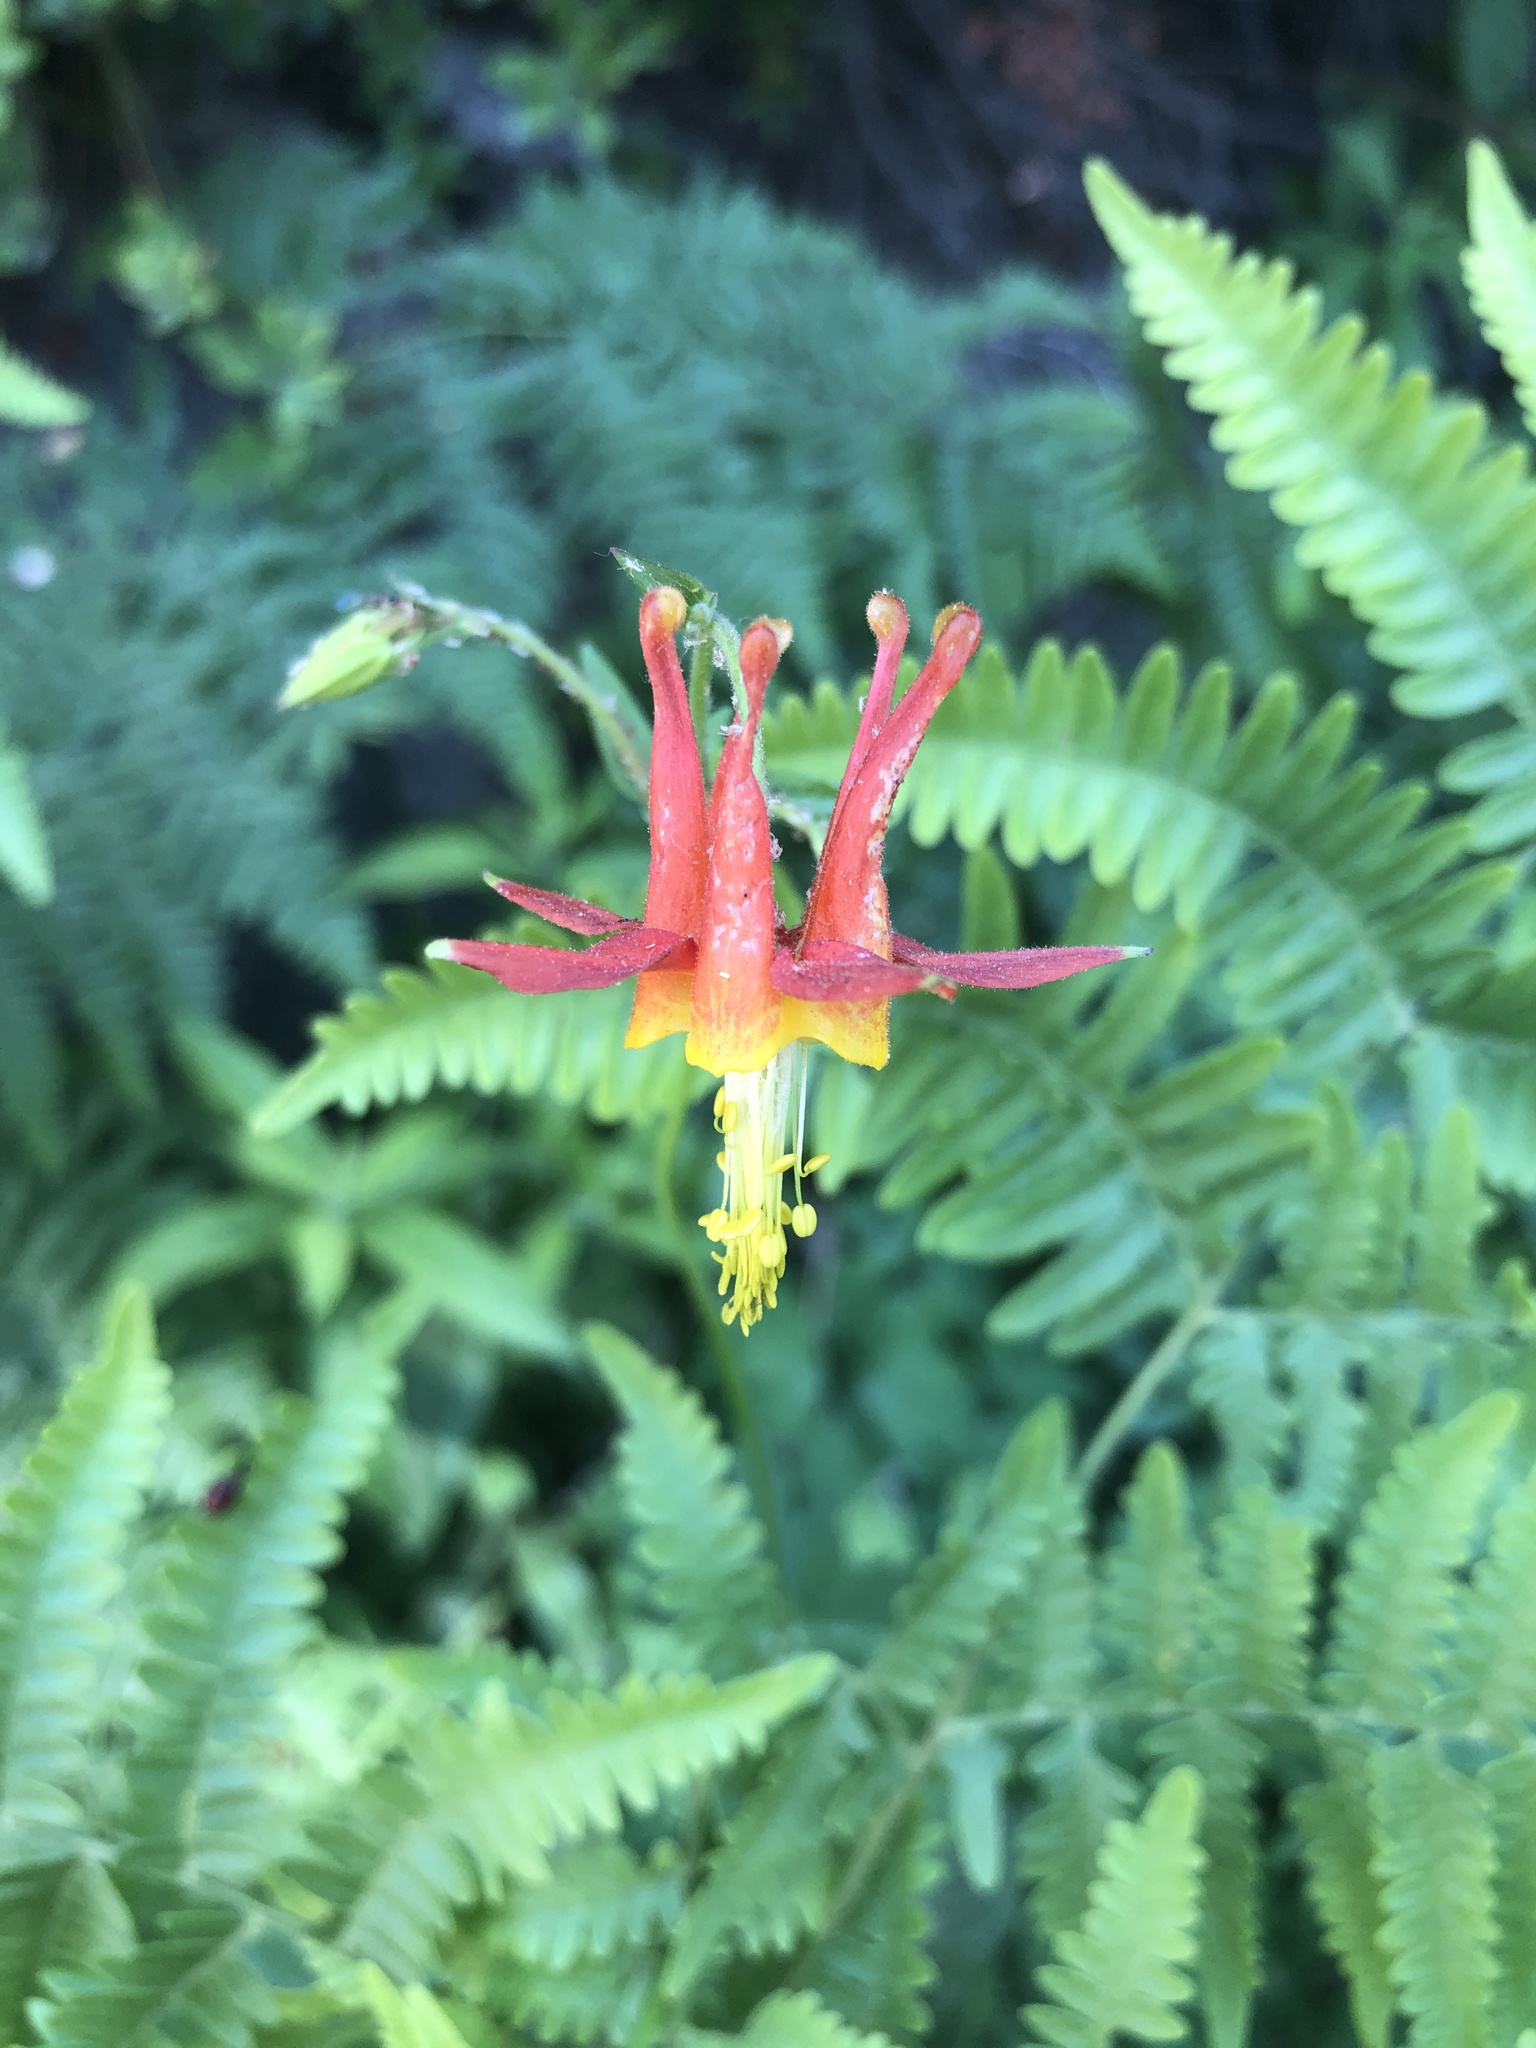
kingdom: Plantae
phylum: Tracheophyta
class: Magnoliopsida
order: Ranunculales
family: Ranunculaceae
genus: Aquilegia
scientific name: Aquilegia formosa
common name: Sitka columbine
